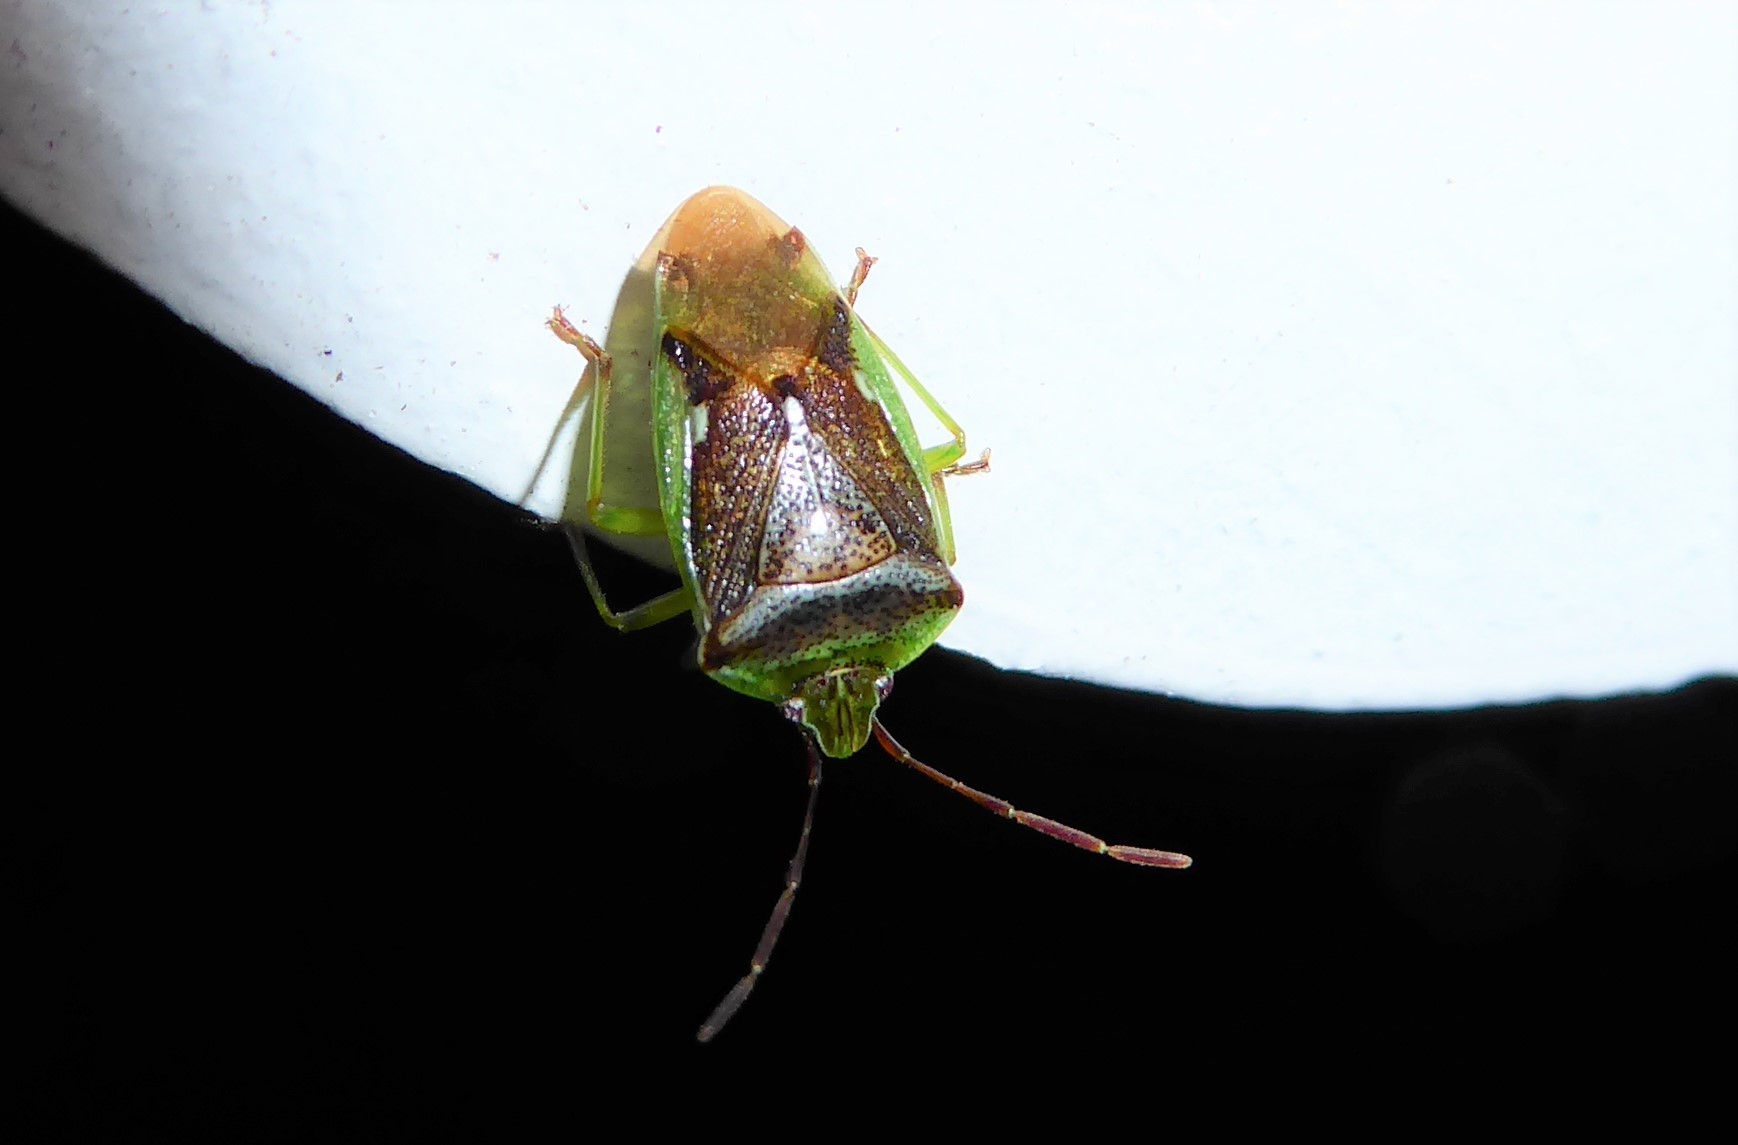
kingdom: Animalia
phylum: Arthropoda
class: Insecta
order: Hemiptera
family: Acanthosomatidae
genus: Oncacontias
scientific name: Oncacontias vittatus
